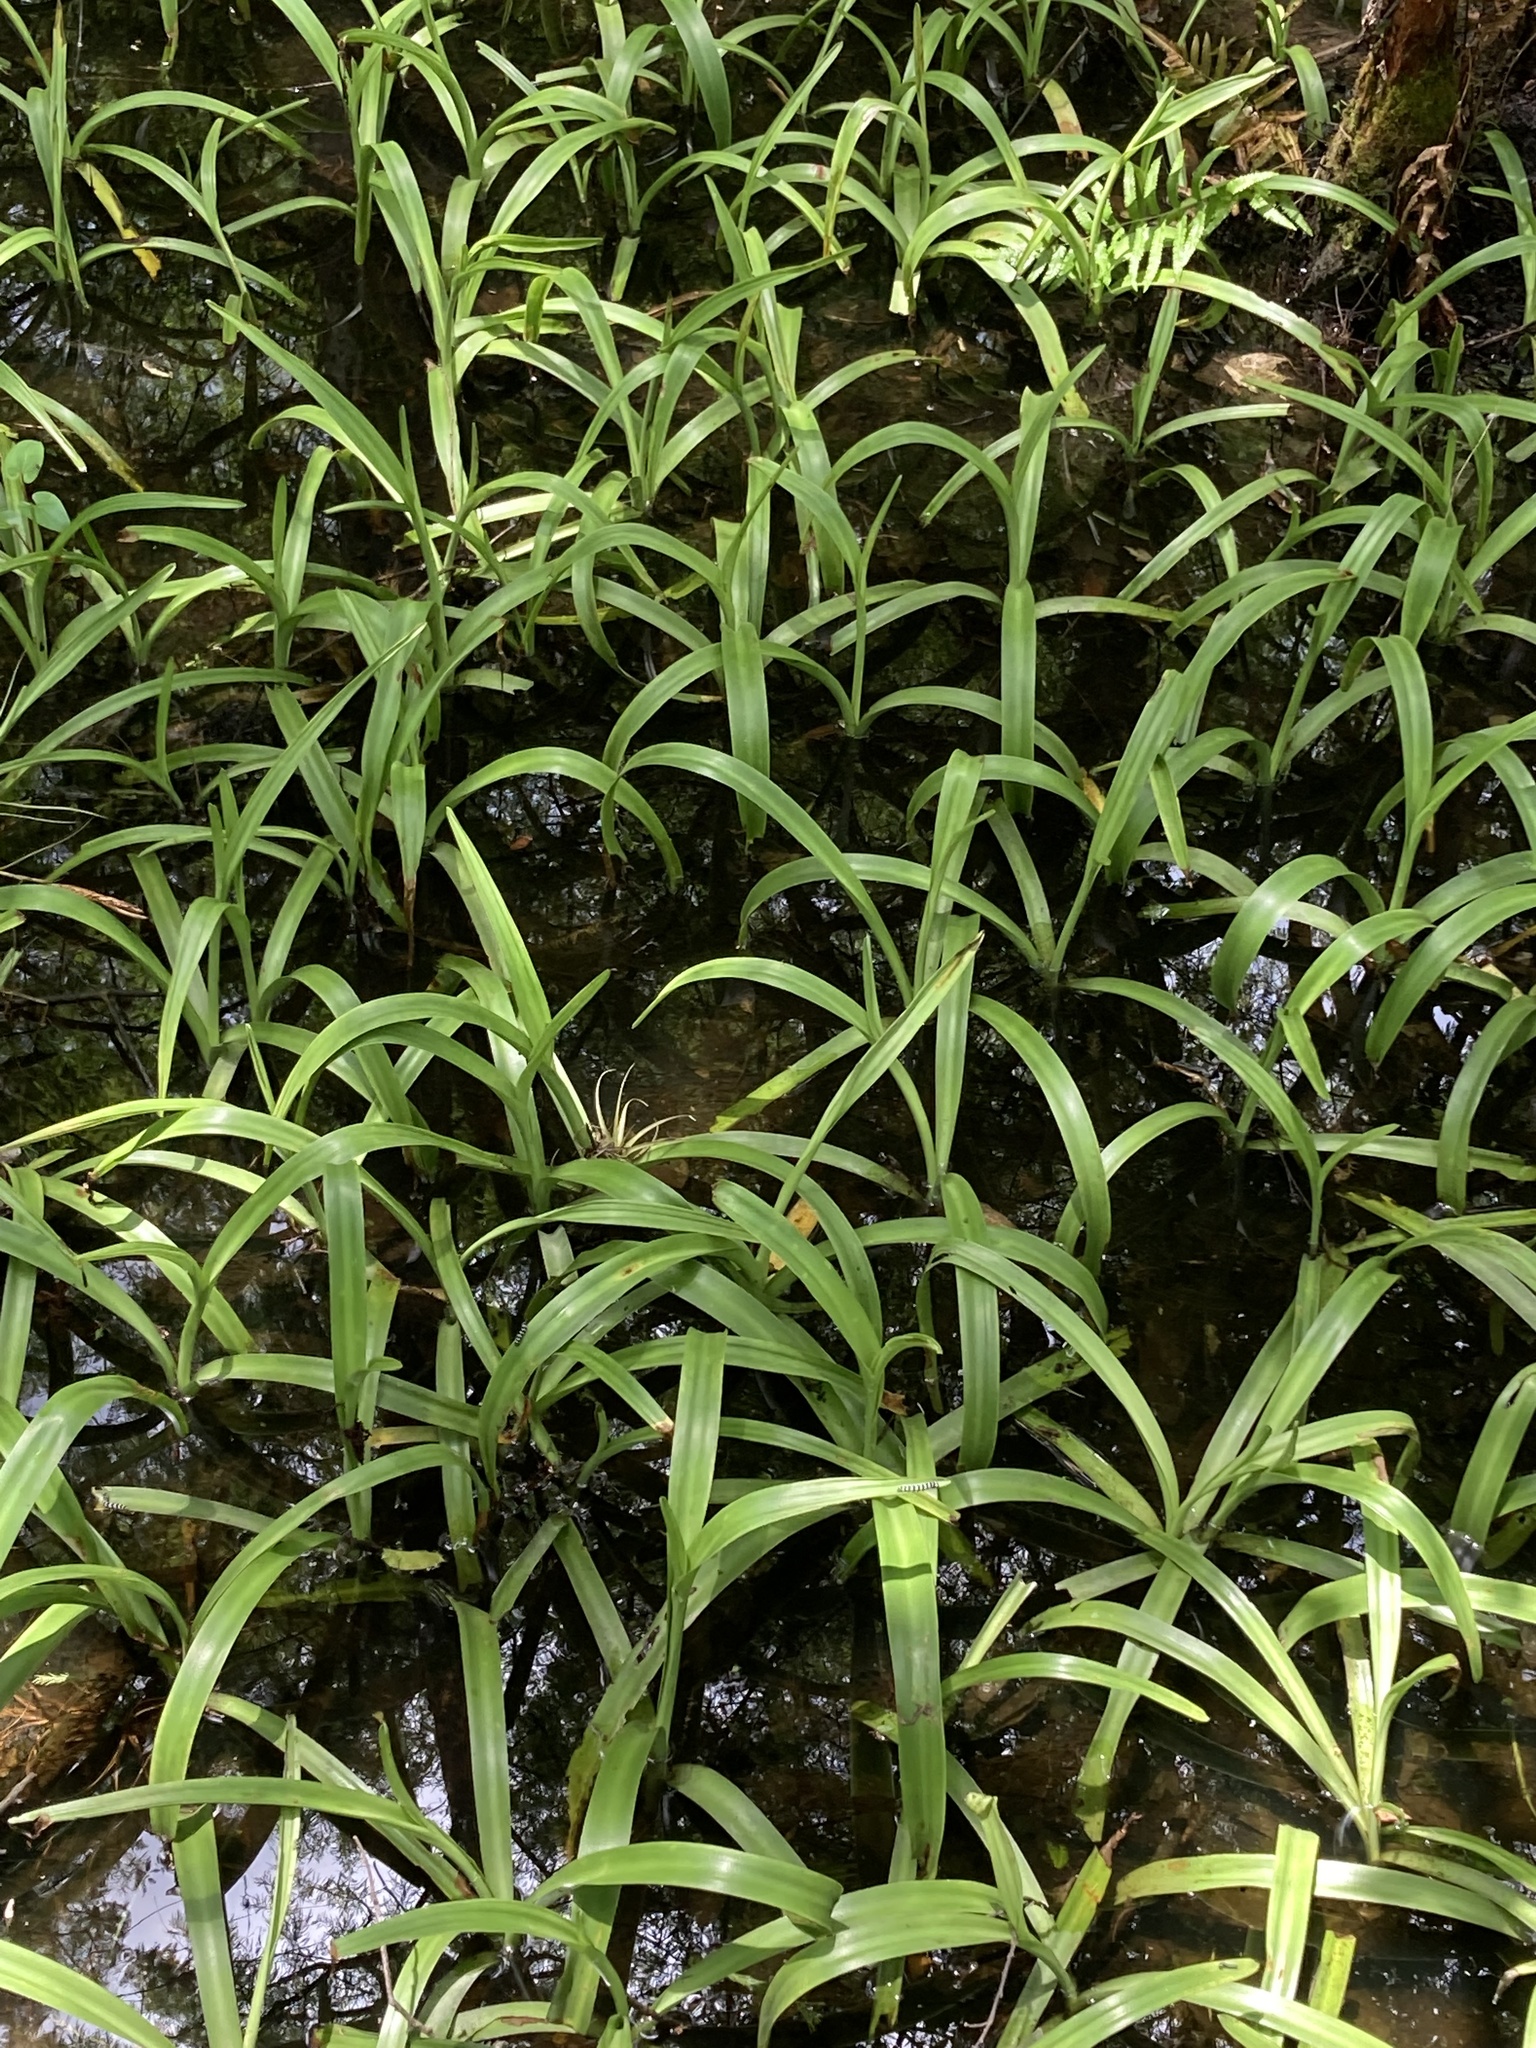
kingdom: Plantae
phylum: Tracheophyta
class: Liliopsida
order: Asparagales
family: Amaryllidaceae
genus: Crinum
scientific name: Crinum americanum
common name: Florida swamp-lily
